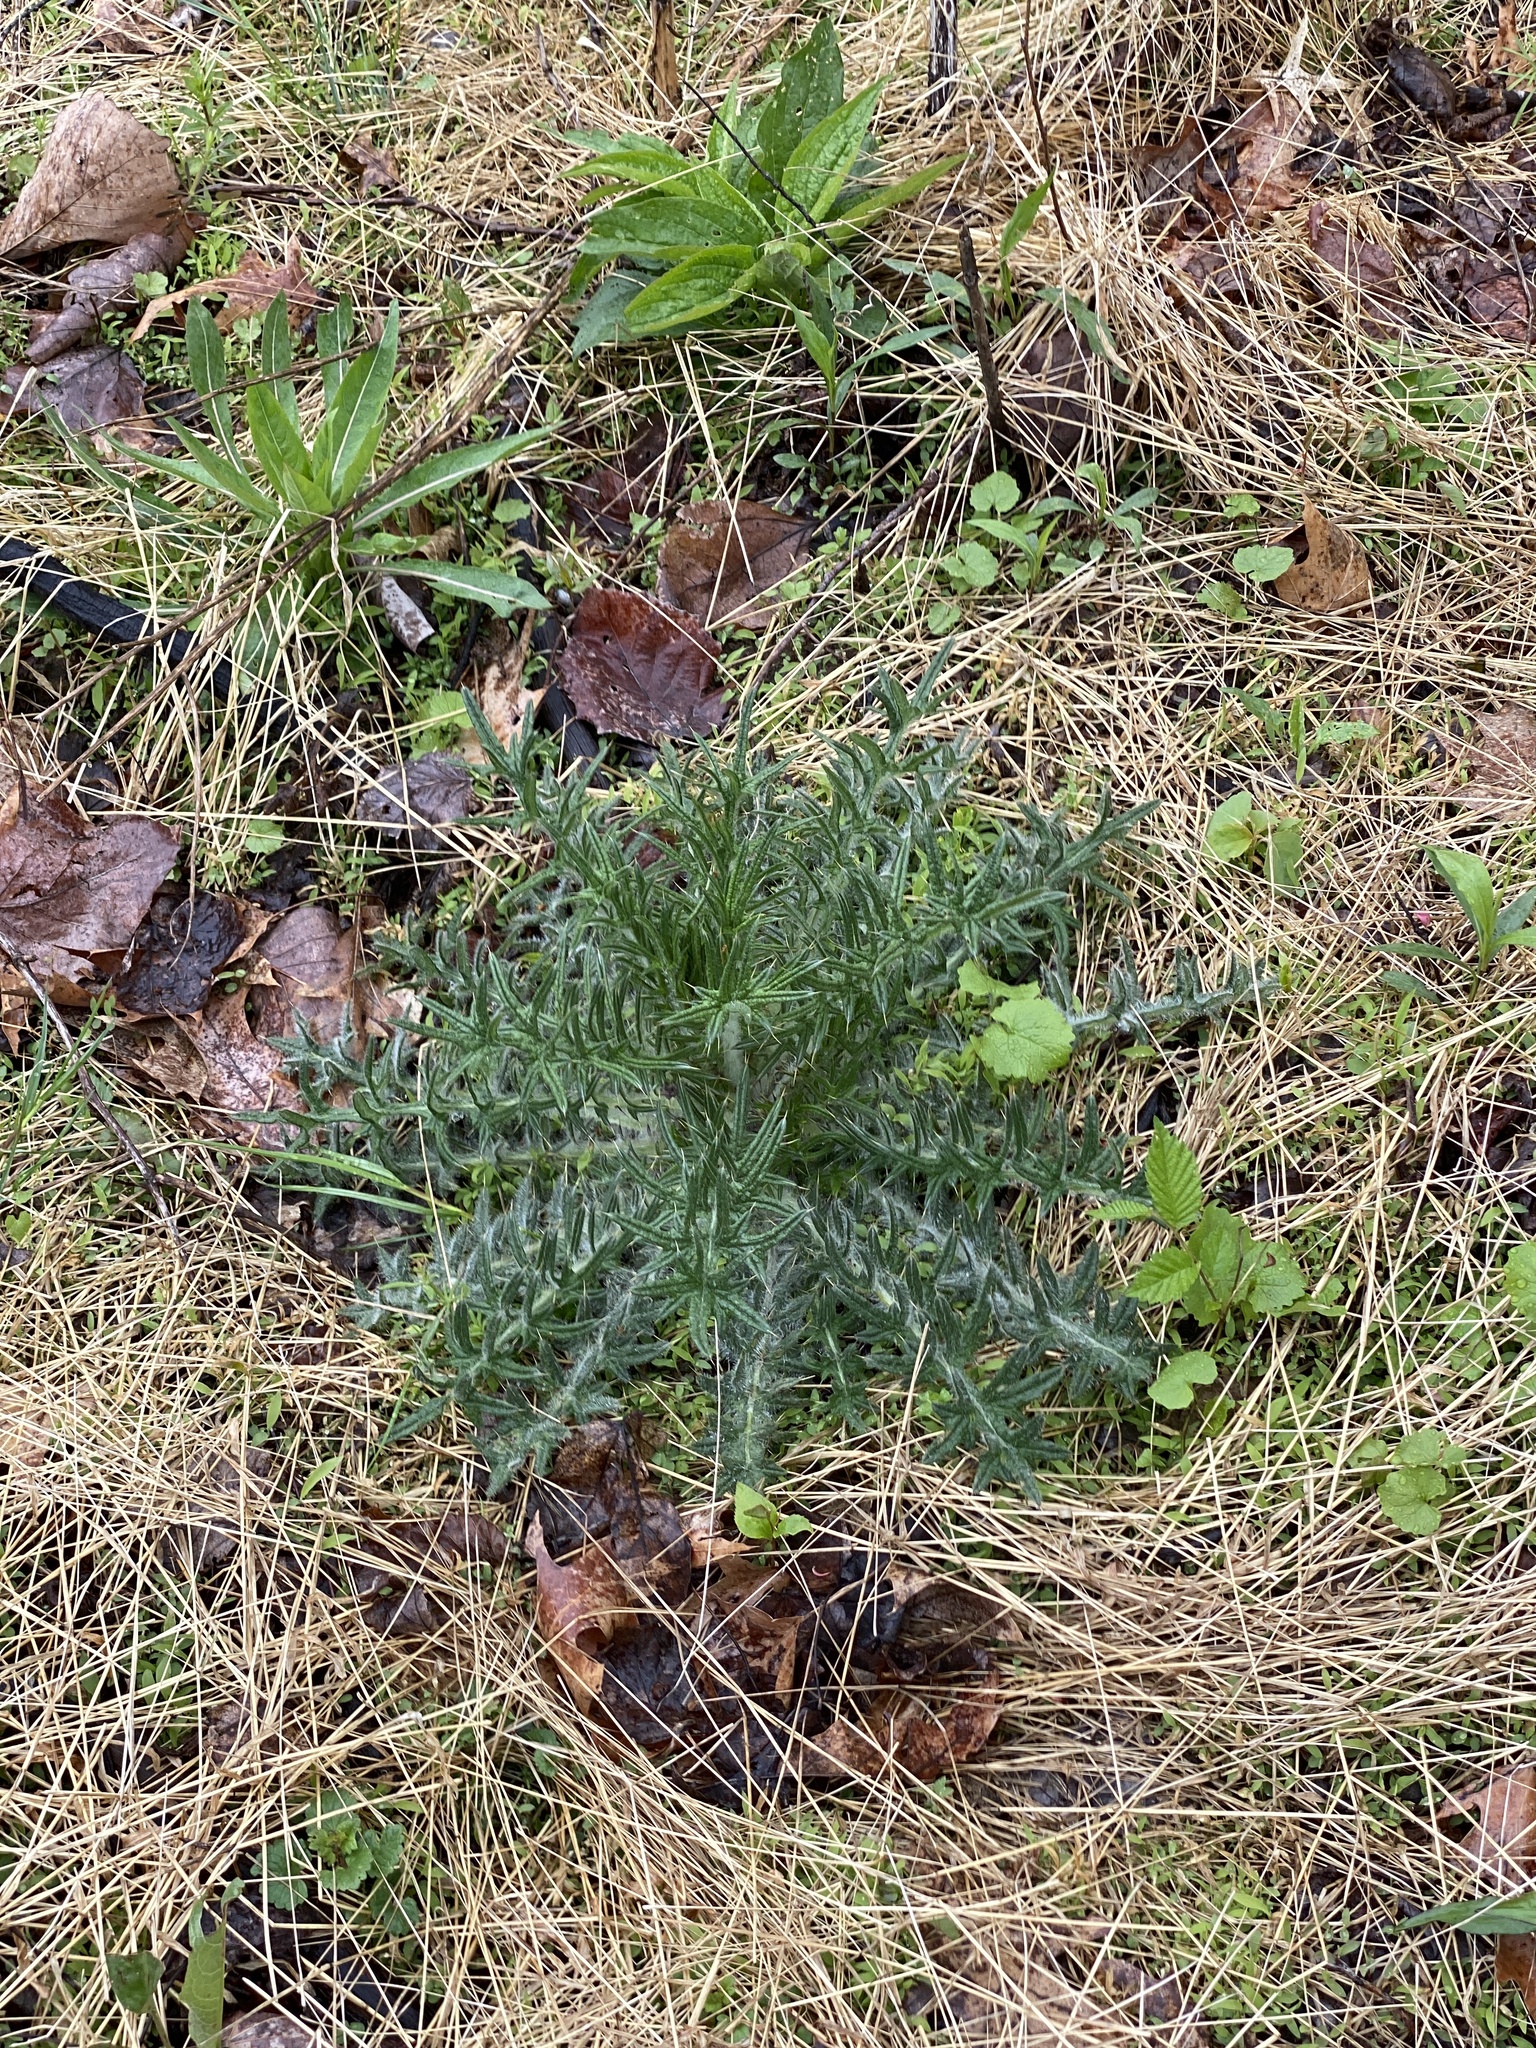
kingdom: Plantae
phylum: Tracheophyta
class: Magnoliopsida
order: Asterales
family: Asteraceae
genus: Cirsium
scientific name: Cirsium vulgare
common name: Bull thistle
